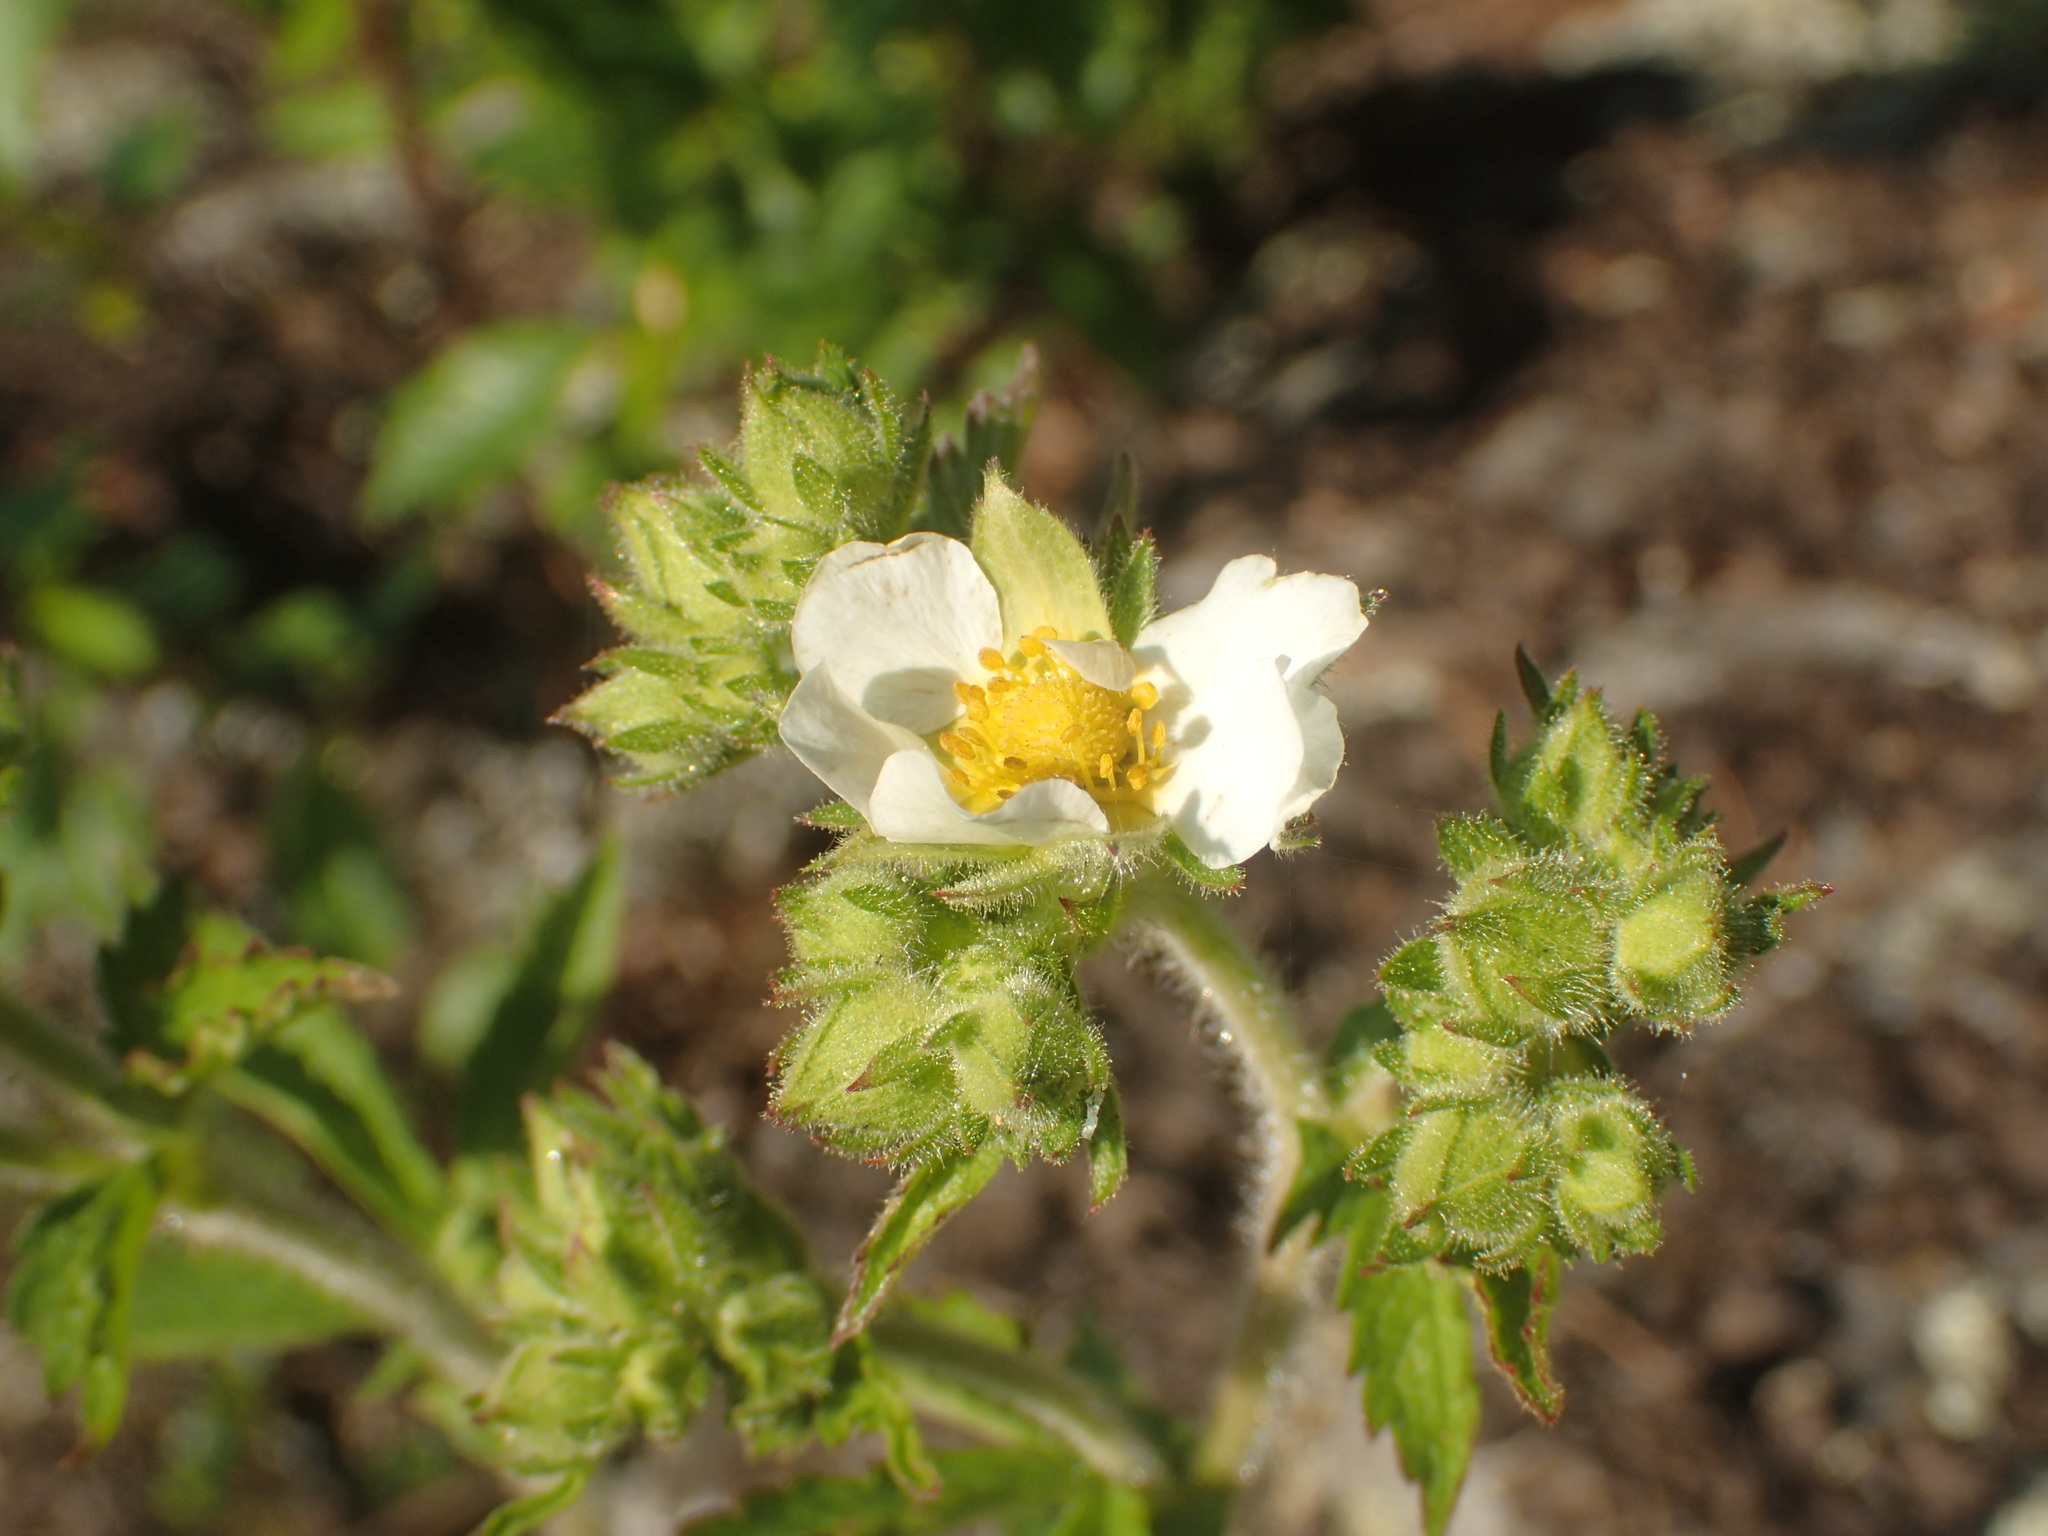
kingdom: Plantae
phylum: Tracheophyta
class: Magnoliopsida
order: Rosales
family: Rosaceae
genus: Drymocallis
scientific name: Drymocallis arguta
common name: Tall cinquefoil
